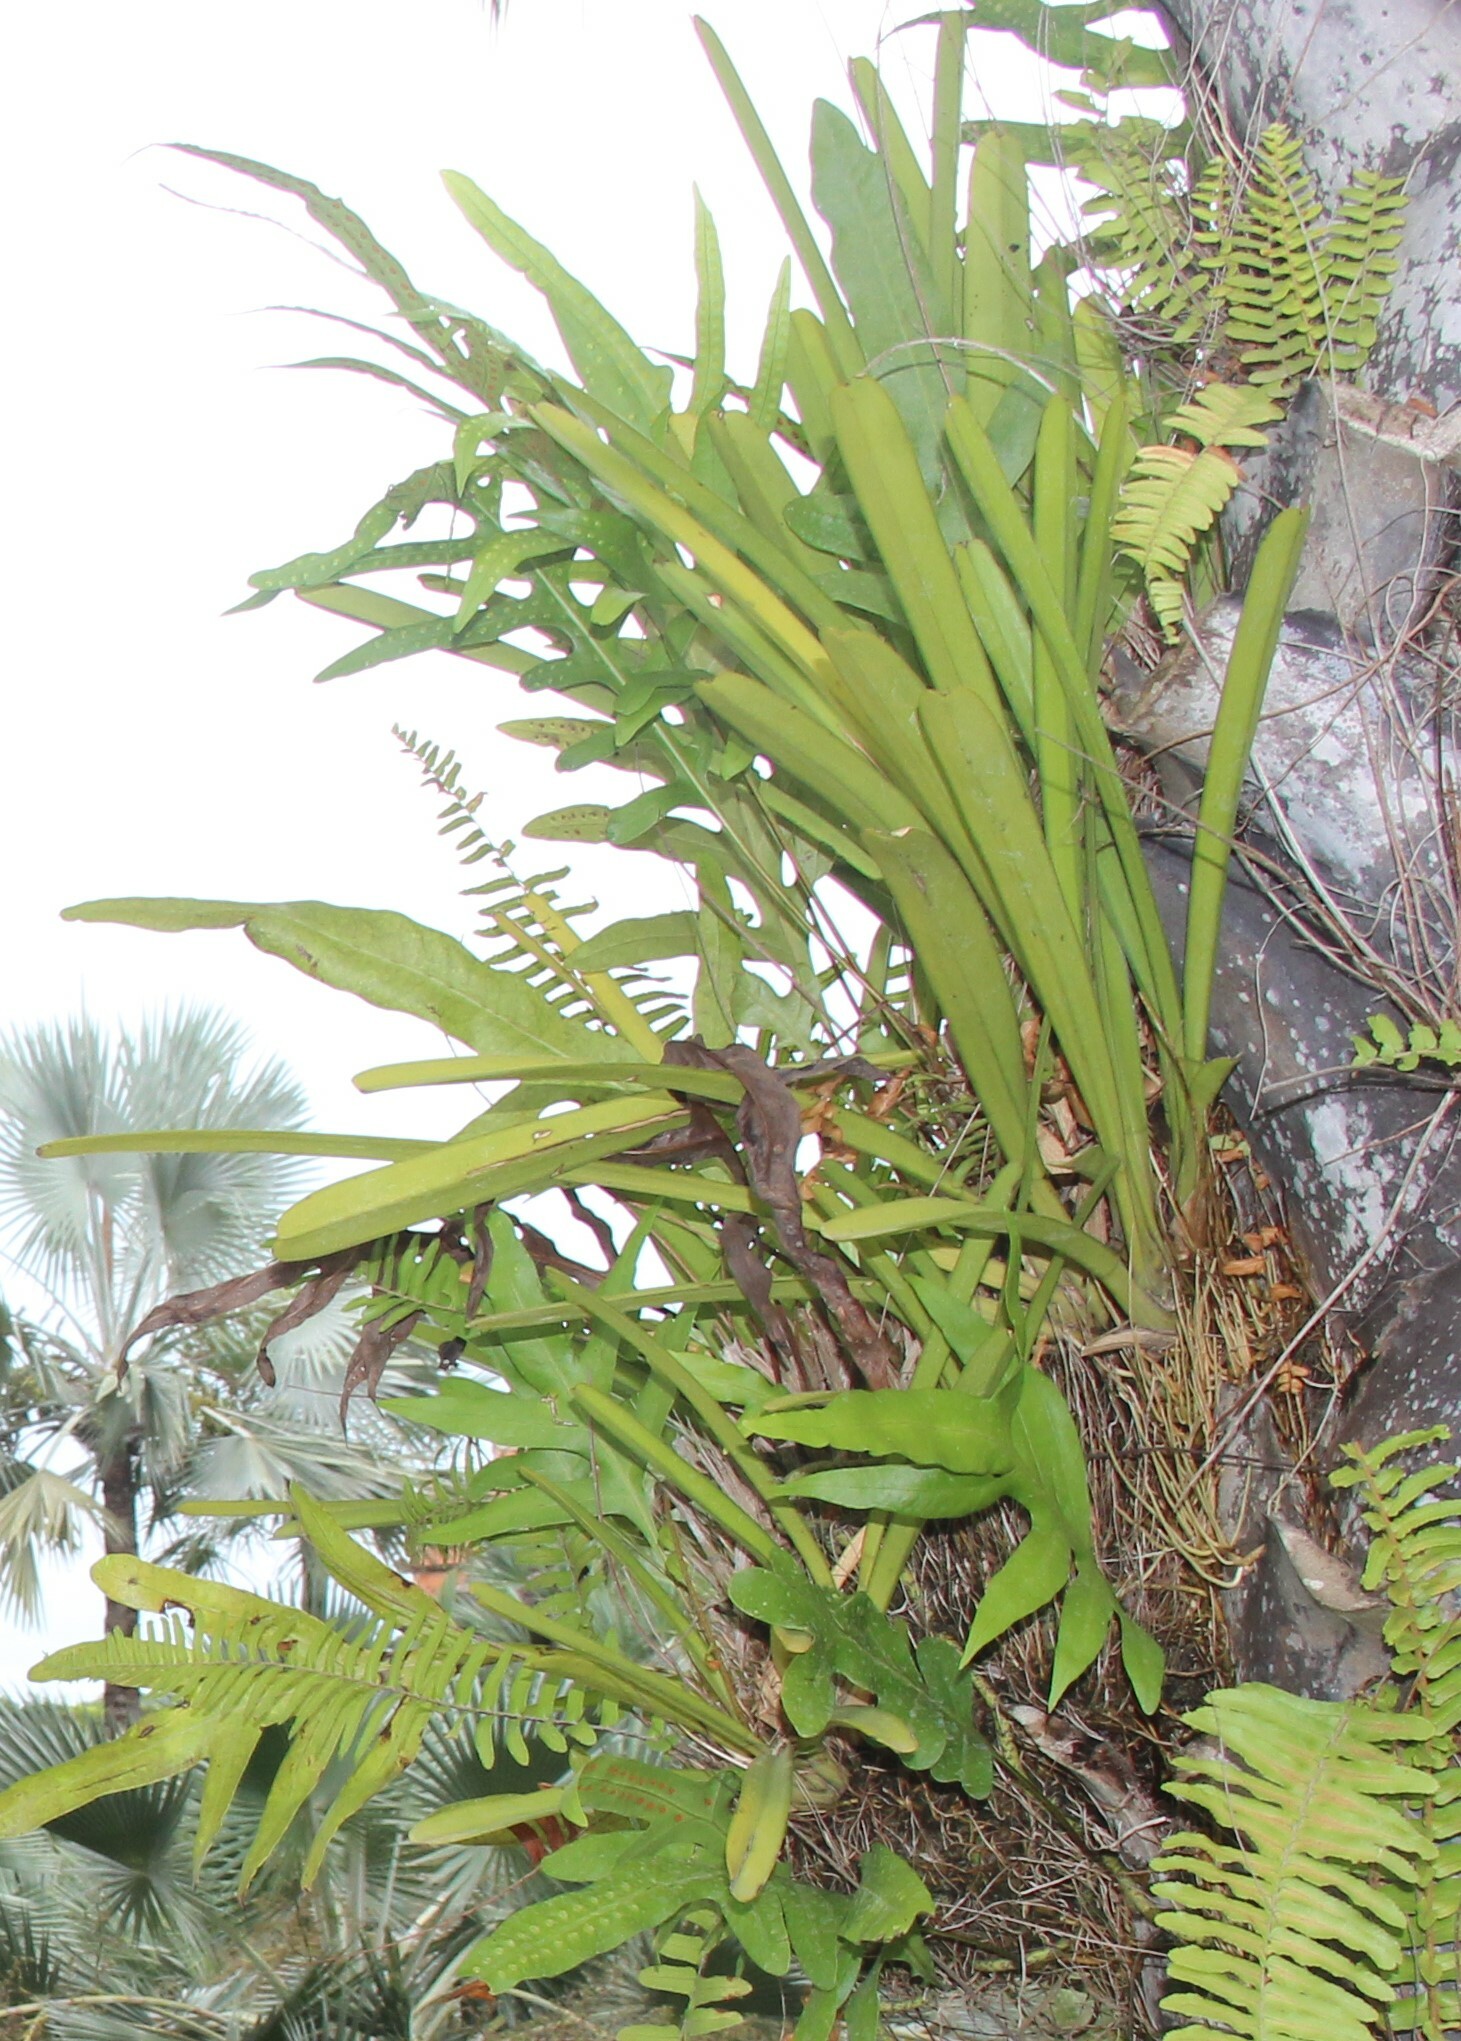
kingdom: Plantae
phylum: Tracheophyta
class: Liliopsida
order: Asparagales
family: Orchidaceae
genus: Cymbidium
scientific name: Cymbidium aloifolium
